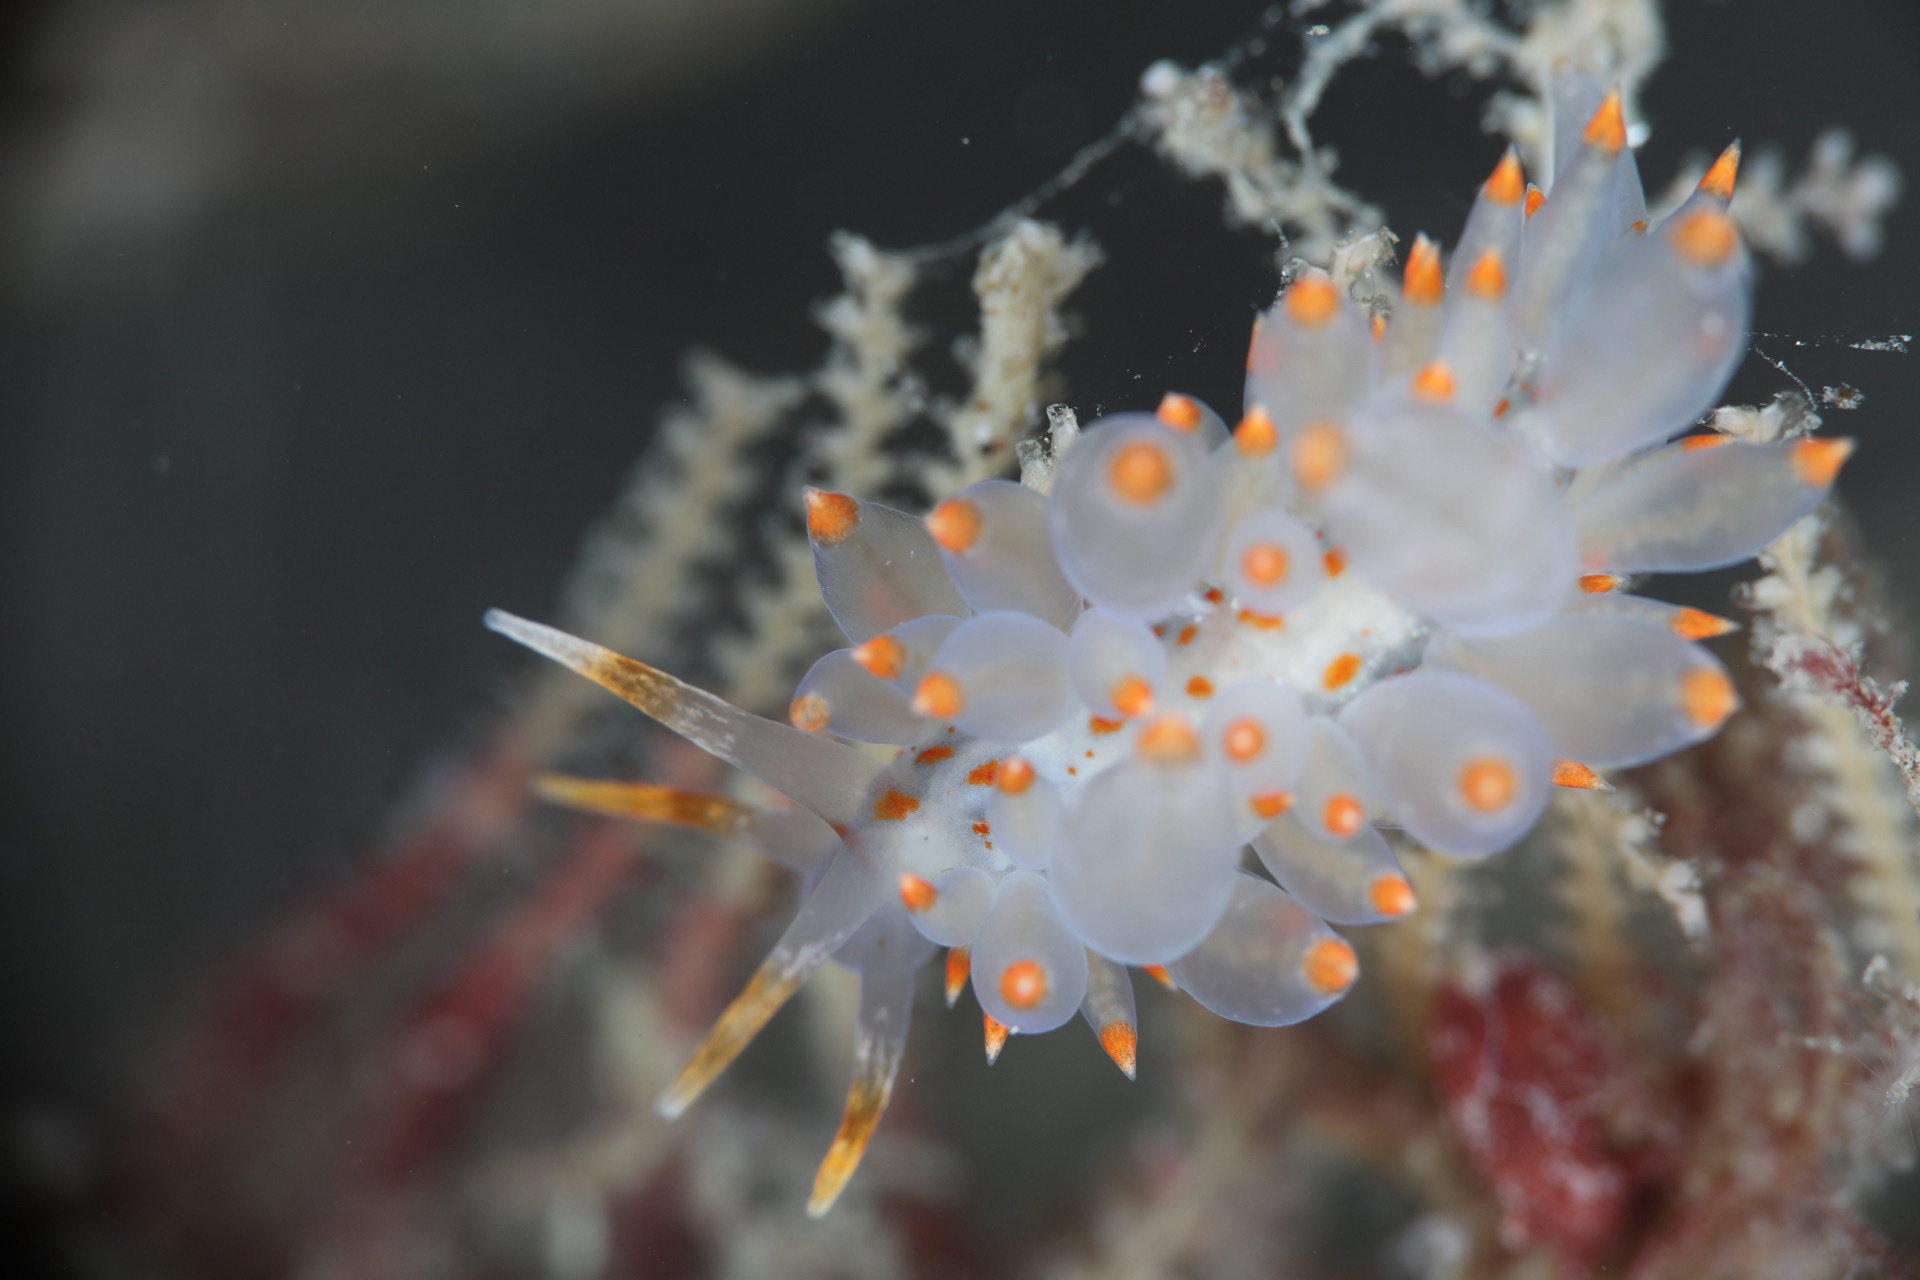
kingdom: Animalia
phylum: Mollusca
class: Gastropoda
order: Nudibranchia
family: Eubranchidae
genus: Amphorina
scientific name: Amphorina farrani
